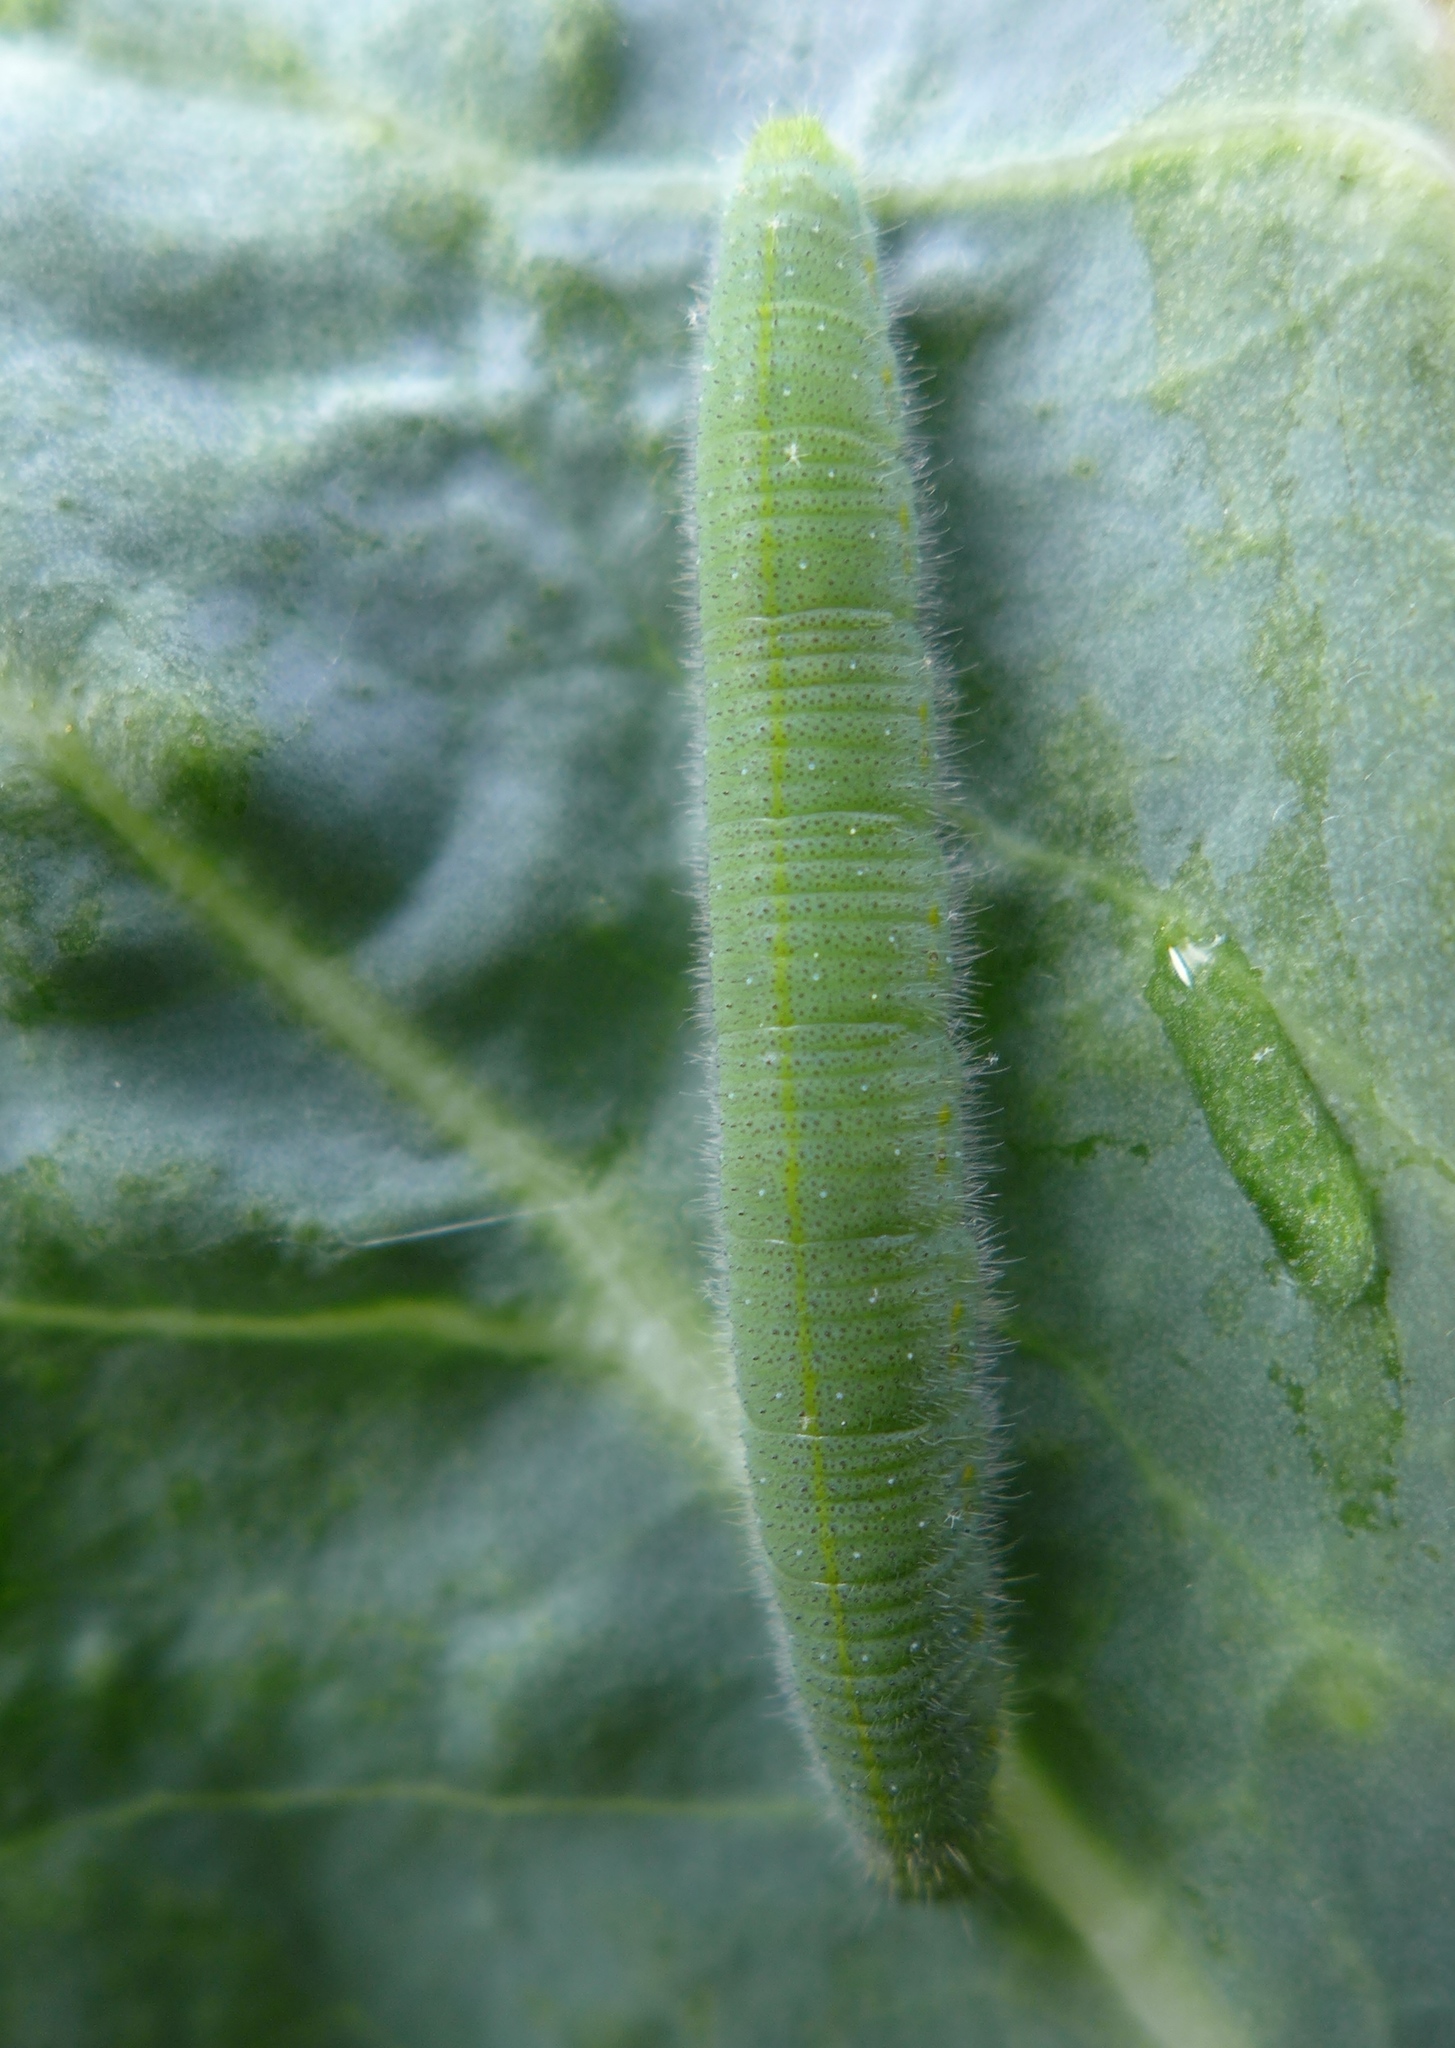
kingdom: Animalia
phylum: Arthropoda
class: Insecta
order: Lepidoptera
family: Pieridae
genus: Pieris
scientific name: Pieris rapae
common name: Small white
